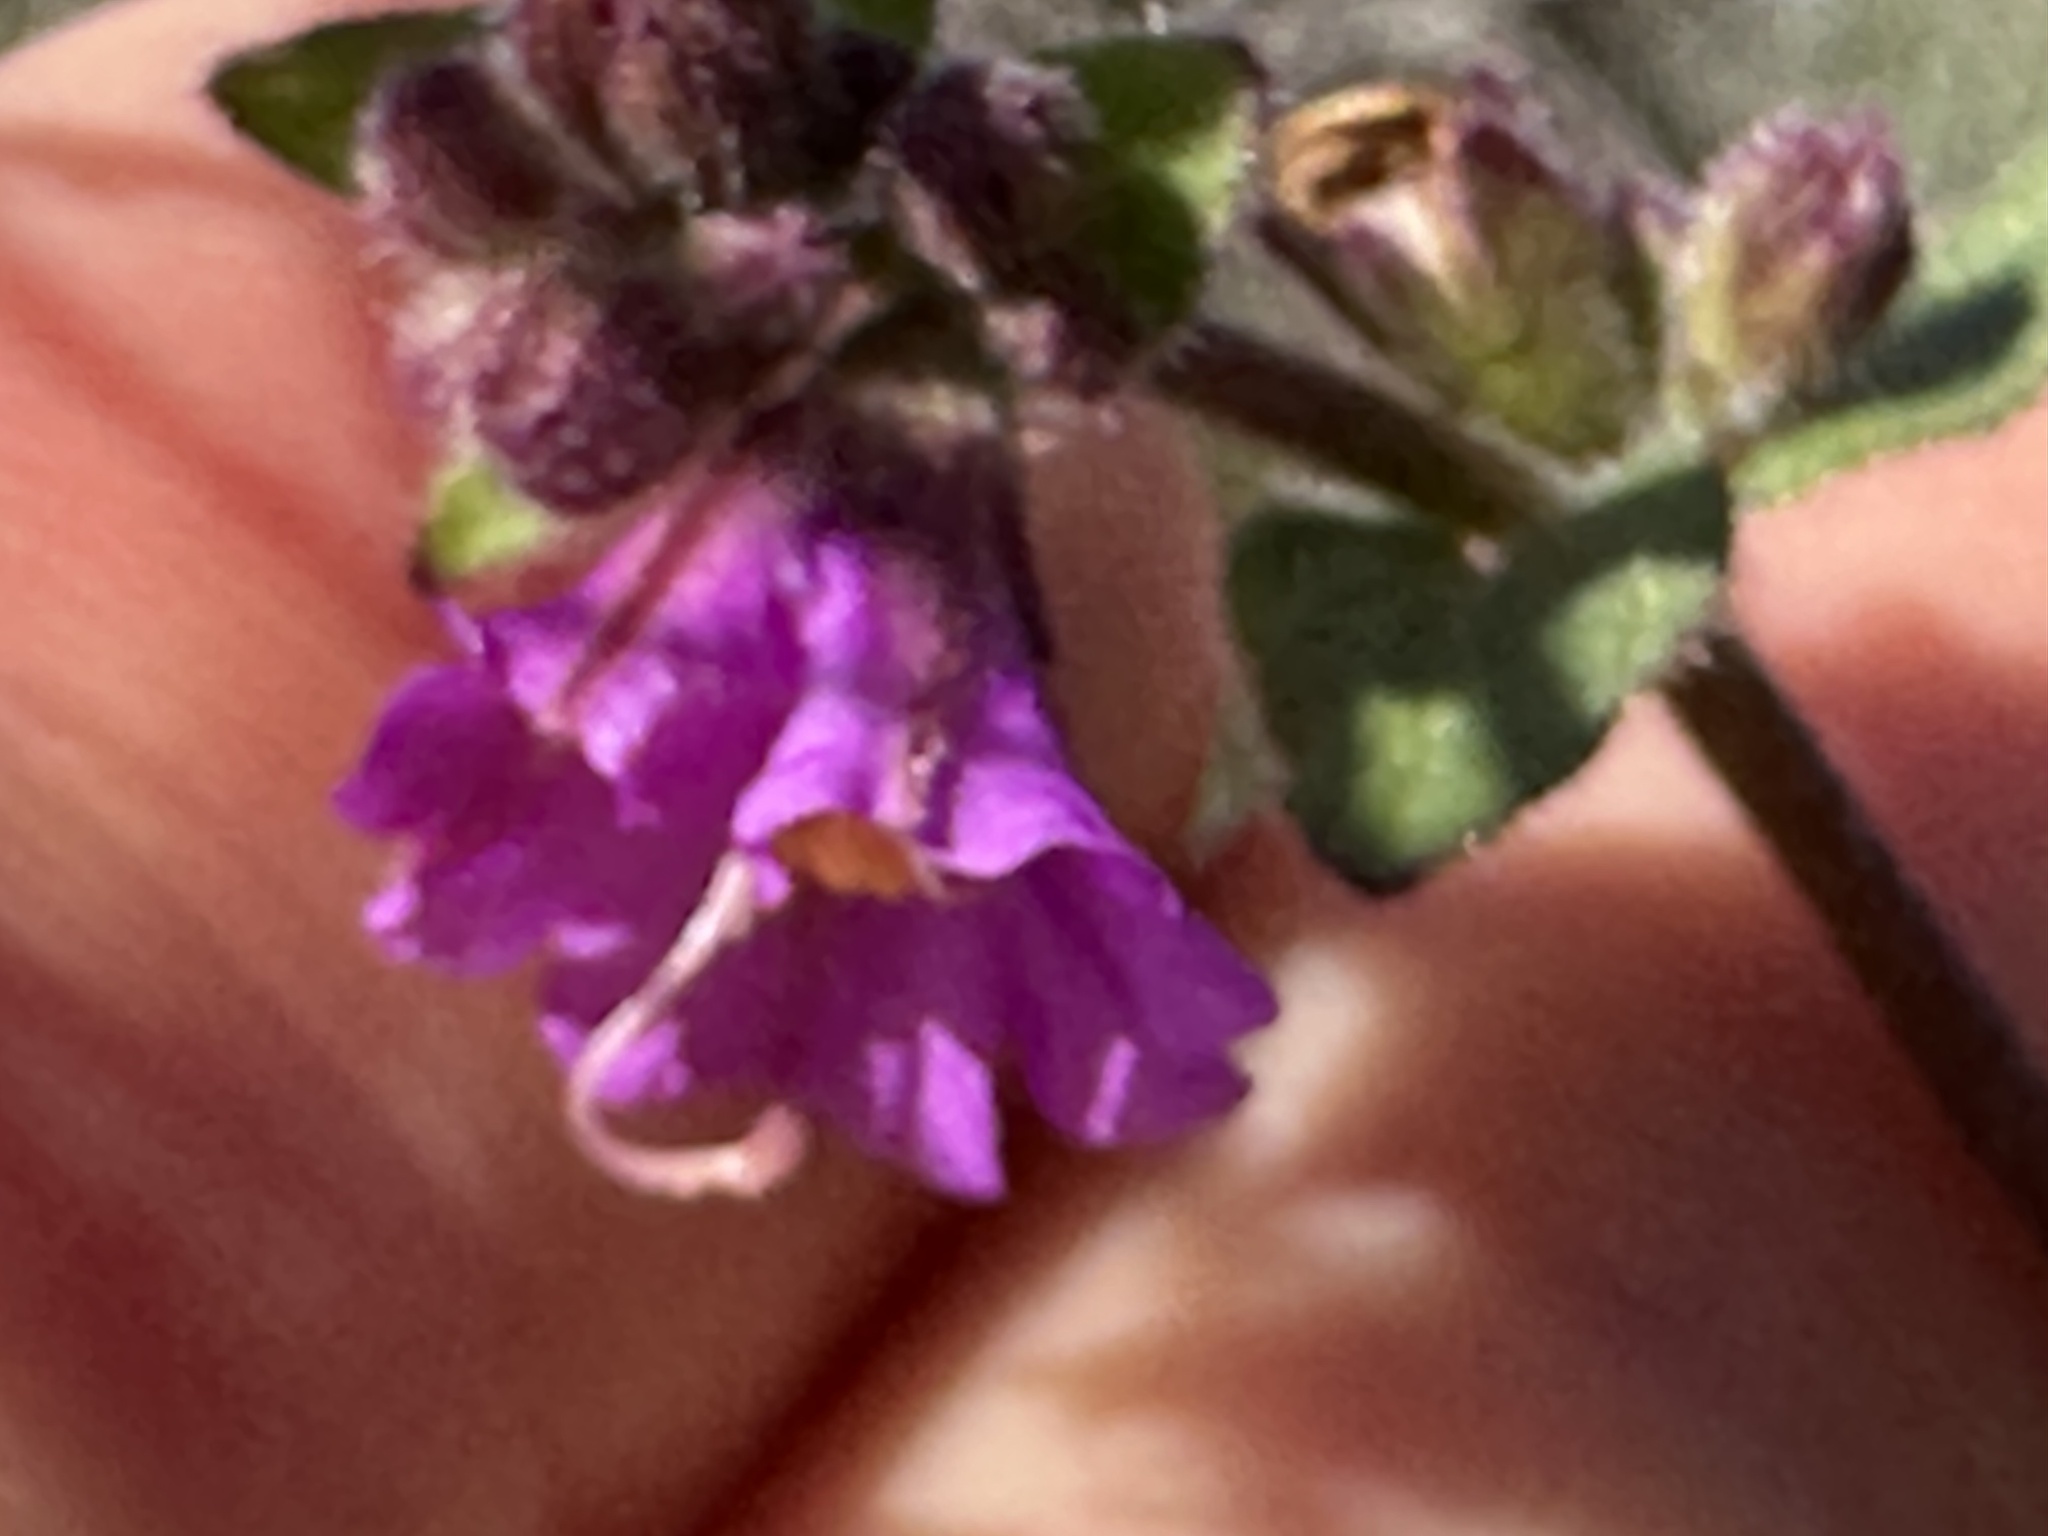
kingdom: Plantae
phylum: Tracheophyta
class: Magnoliopsida
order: Caryophyllales
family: Nyctaginaceae
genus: Mirabilis
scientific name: Mirabilis laevis
